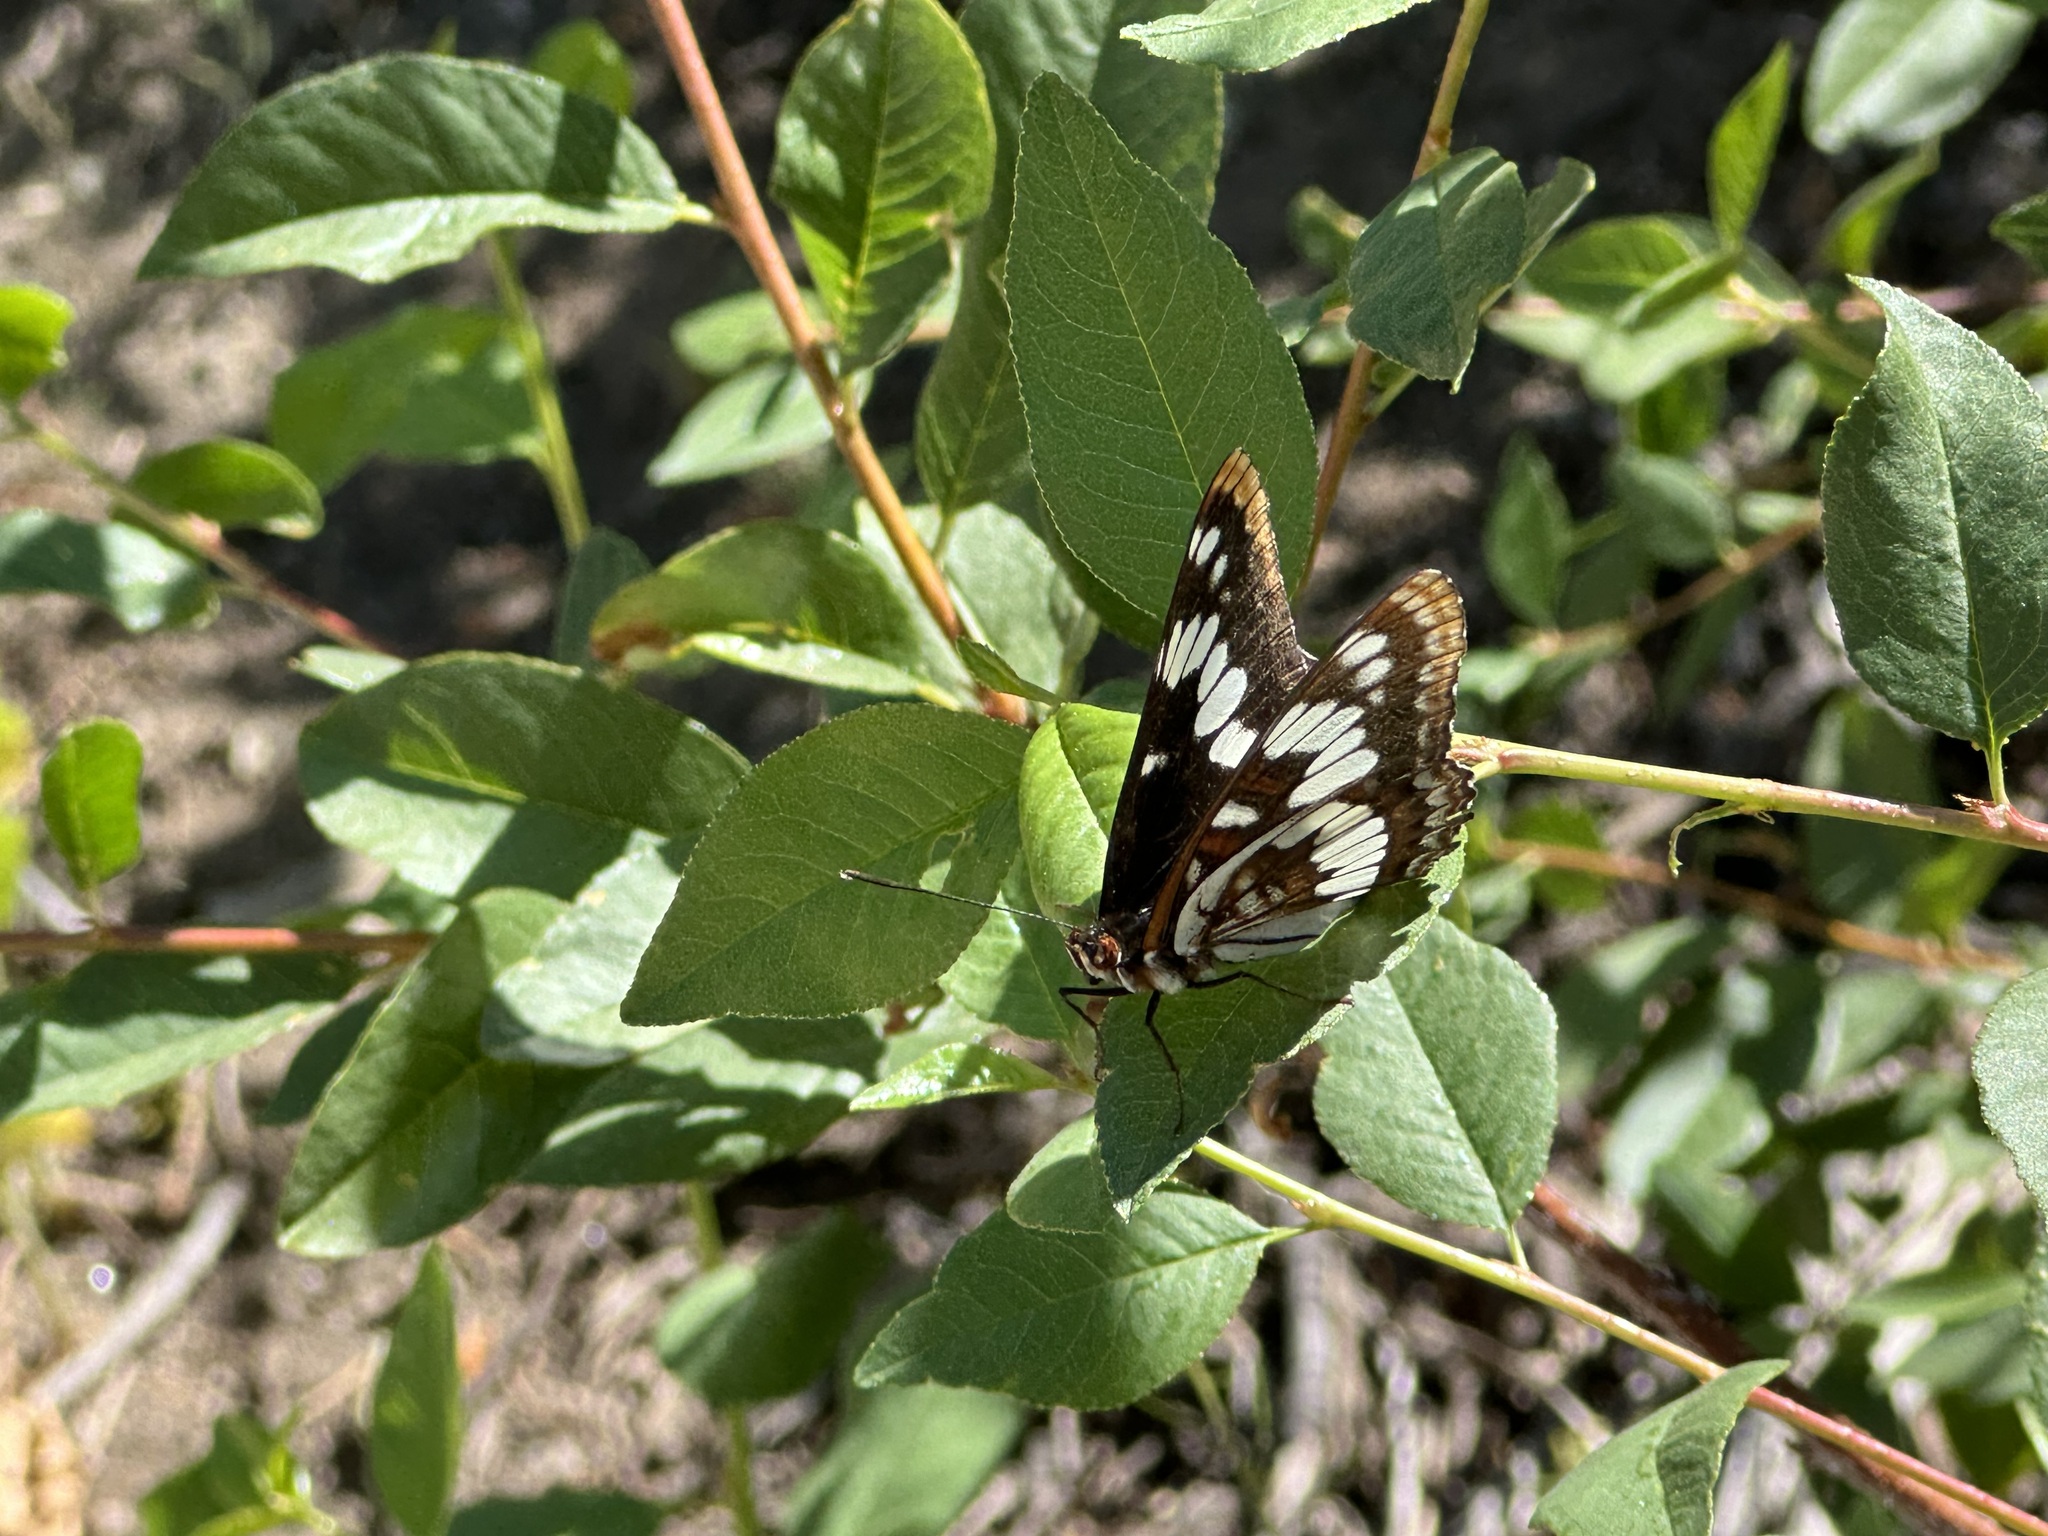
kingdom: Animalia
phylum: Arthropoda
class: Insecta
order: Lepidoptera
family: Nymphalidae
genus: Limenitis
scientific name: Limenitis lorquini
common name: Lorquin's admiral
